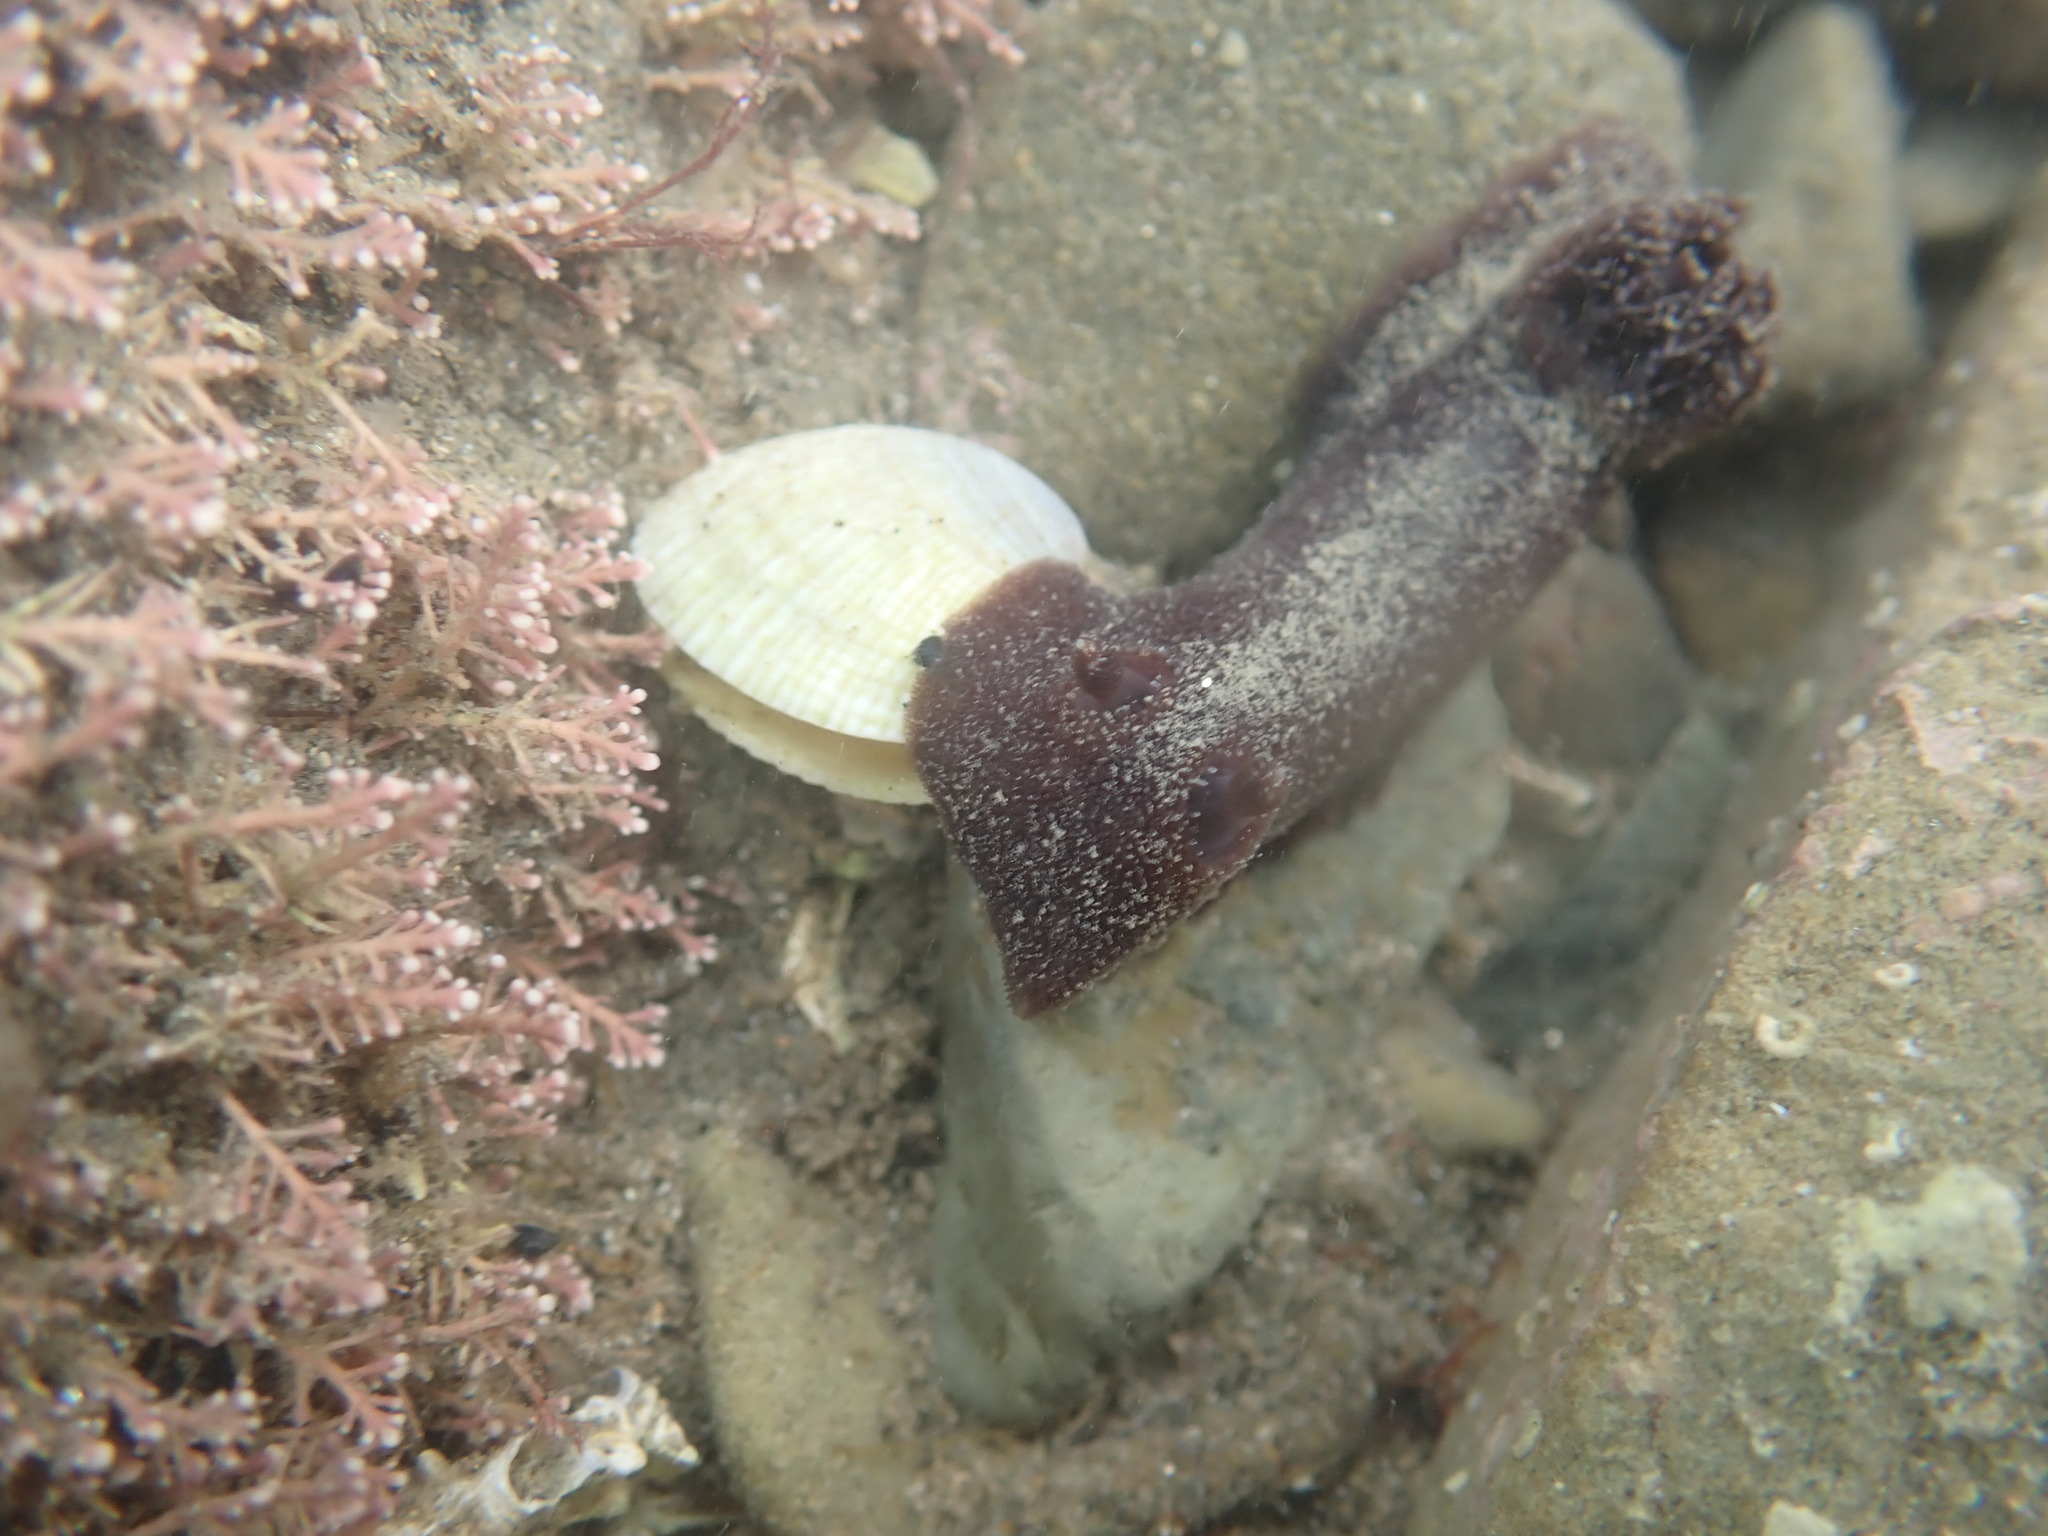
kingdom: Animalia
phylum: Mollusca
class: Gastropoda
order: Nudibranchia
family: Discodorididae
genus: Jorunna
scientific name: Jorunna
